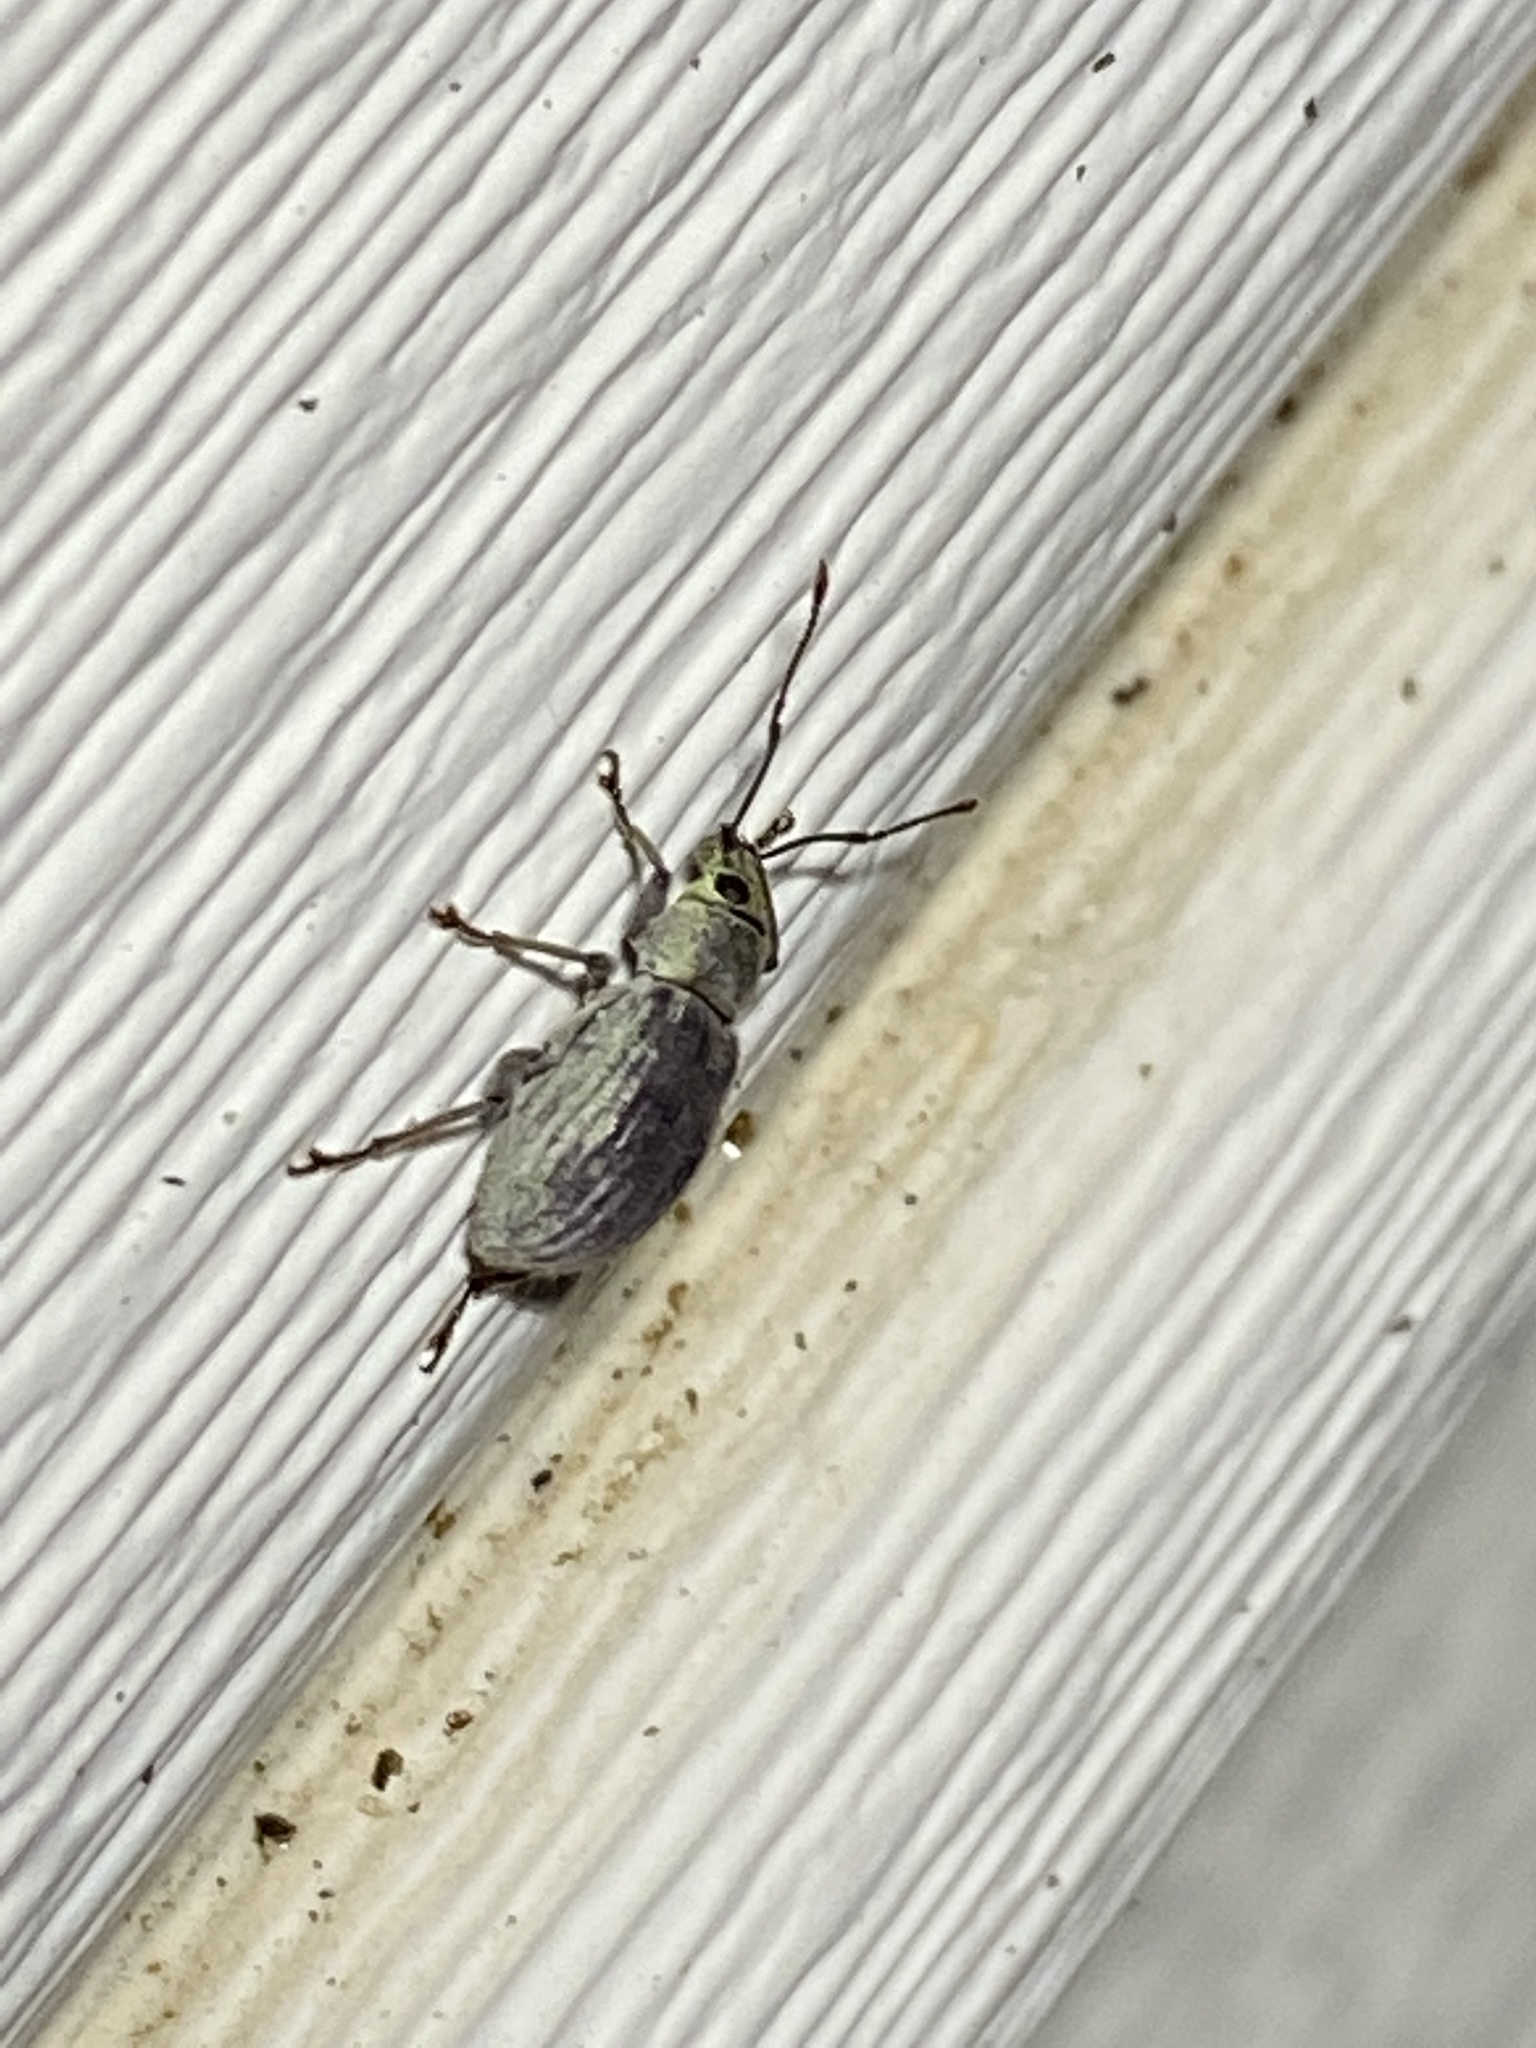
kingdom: Animalia
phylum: Arthropoda
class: Insecta
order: Coleoptera
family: Curculionidae
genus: Cyrtepistomus
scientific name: Cyrtepistomus castaneus
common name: Weevil
